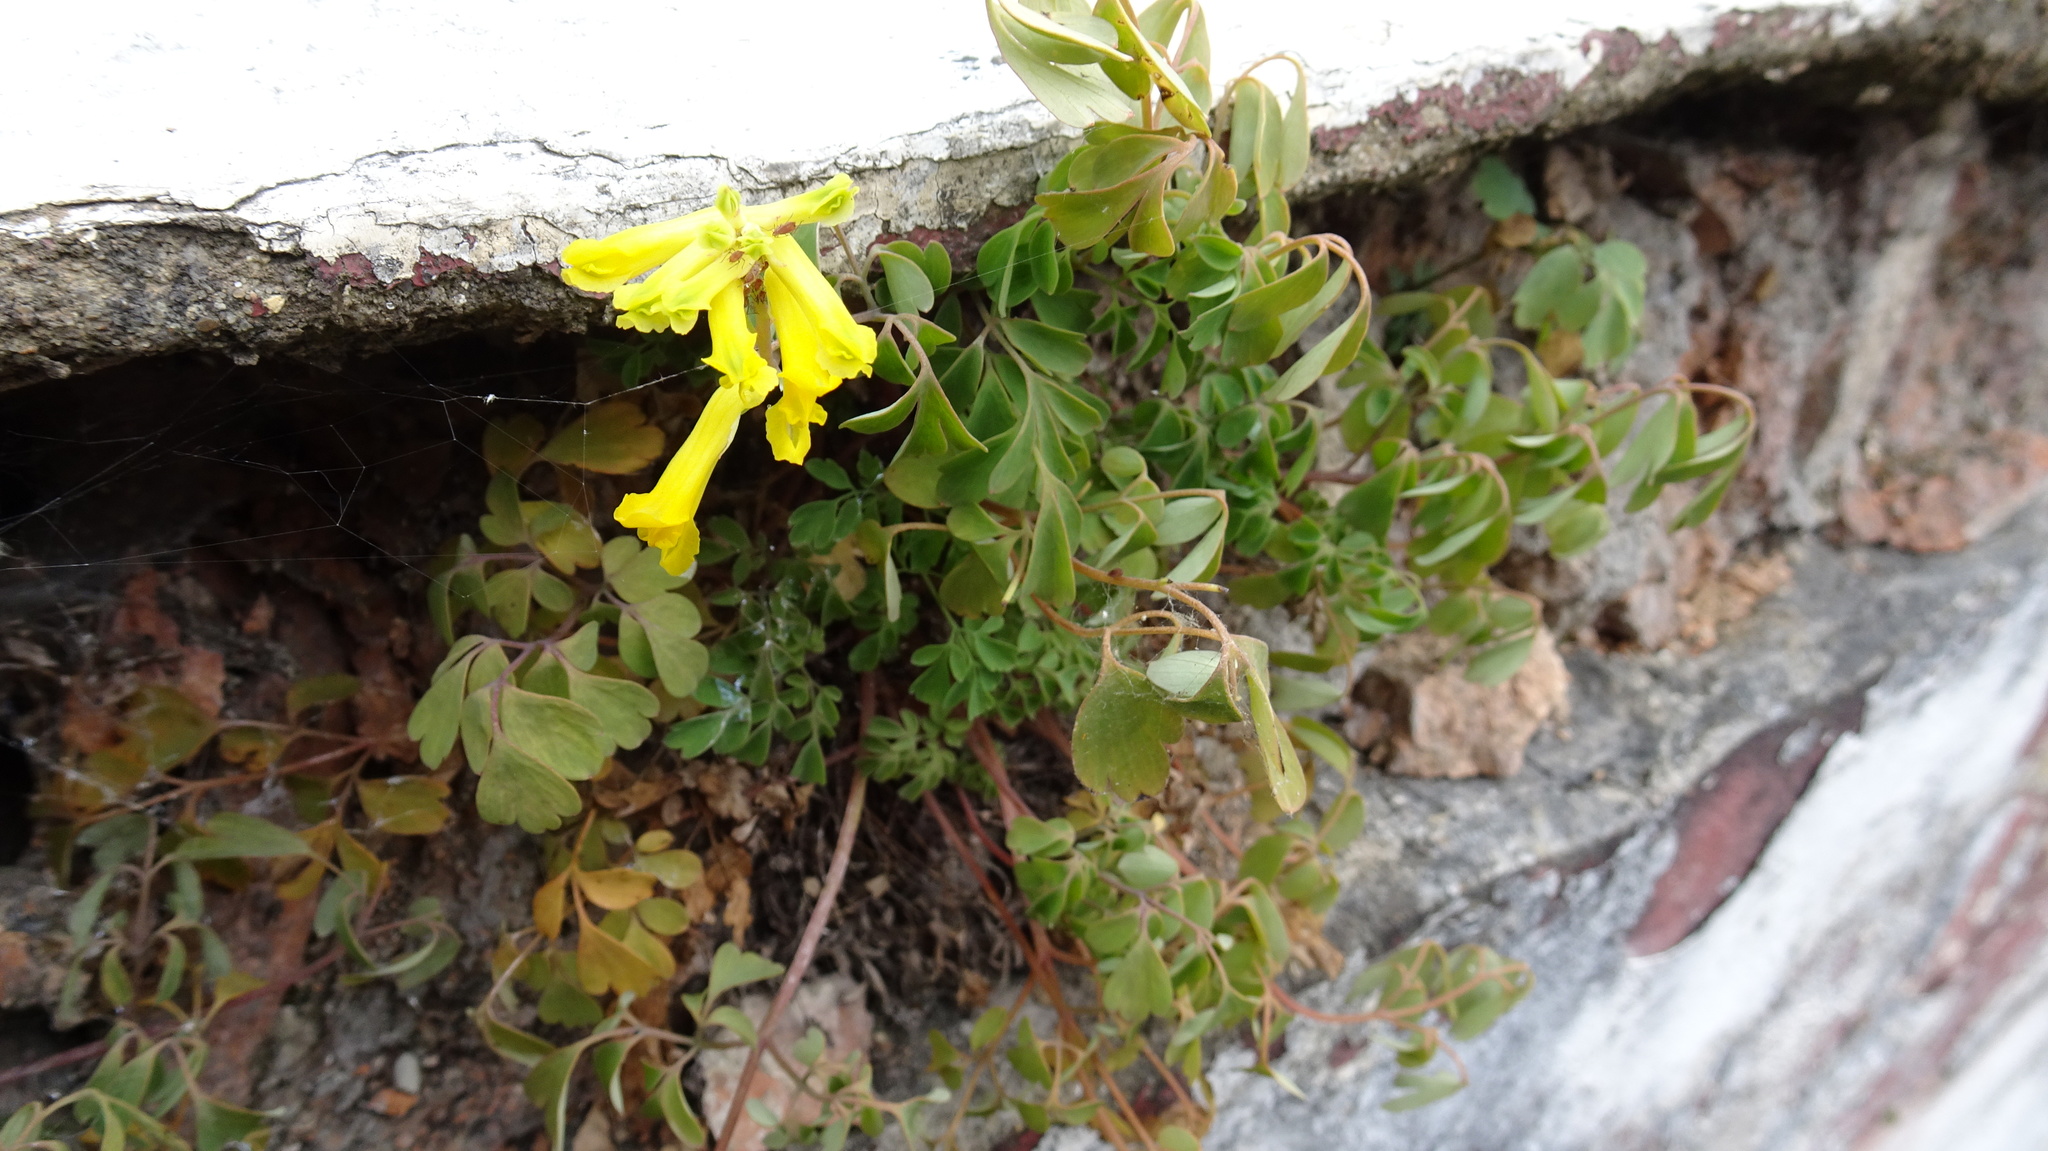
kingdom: Plantae
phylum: Tracheophyta
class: Magnoliopsida
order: Ranunculales
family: Papaveraceae
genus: Pseudofumaria
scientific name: Pseudofumaria lutea
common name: Yellow corydalis
